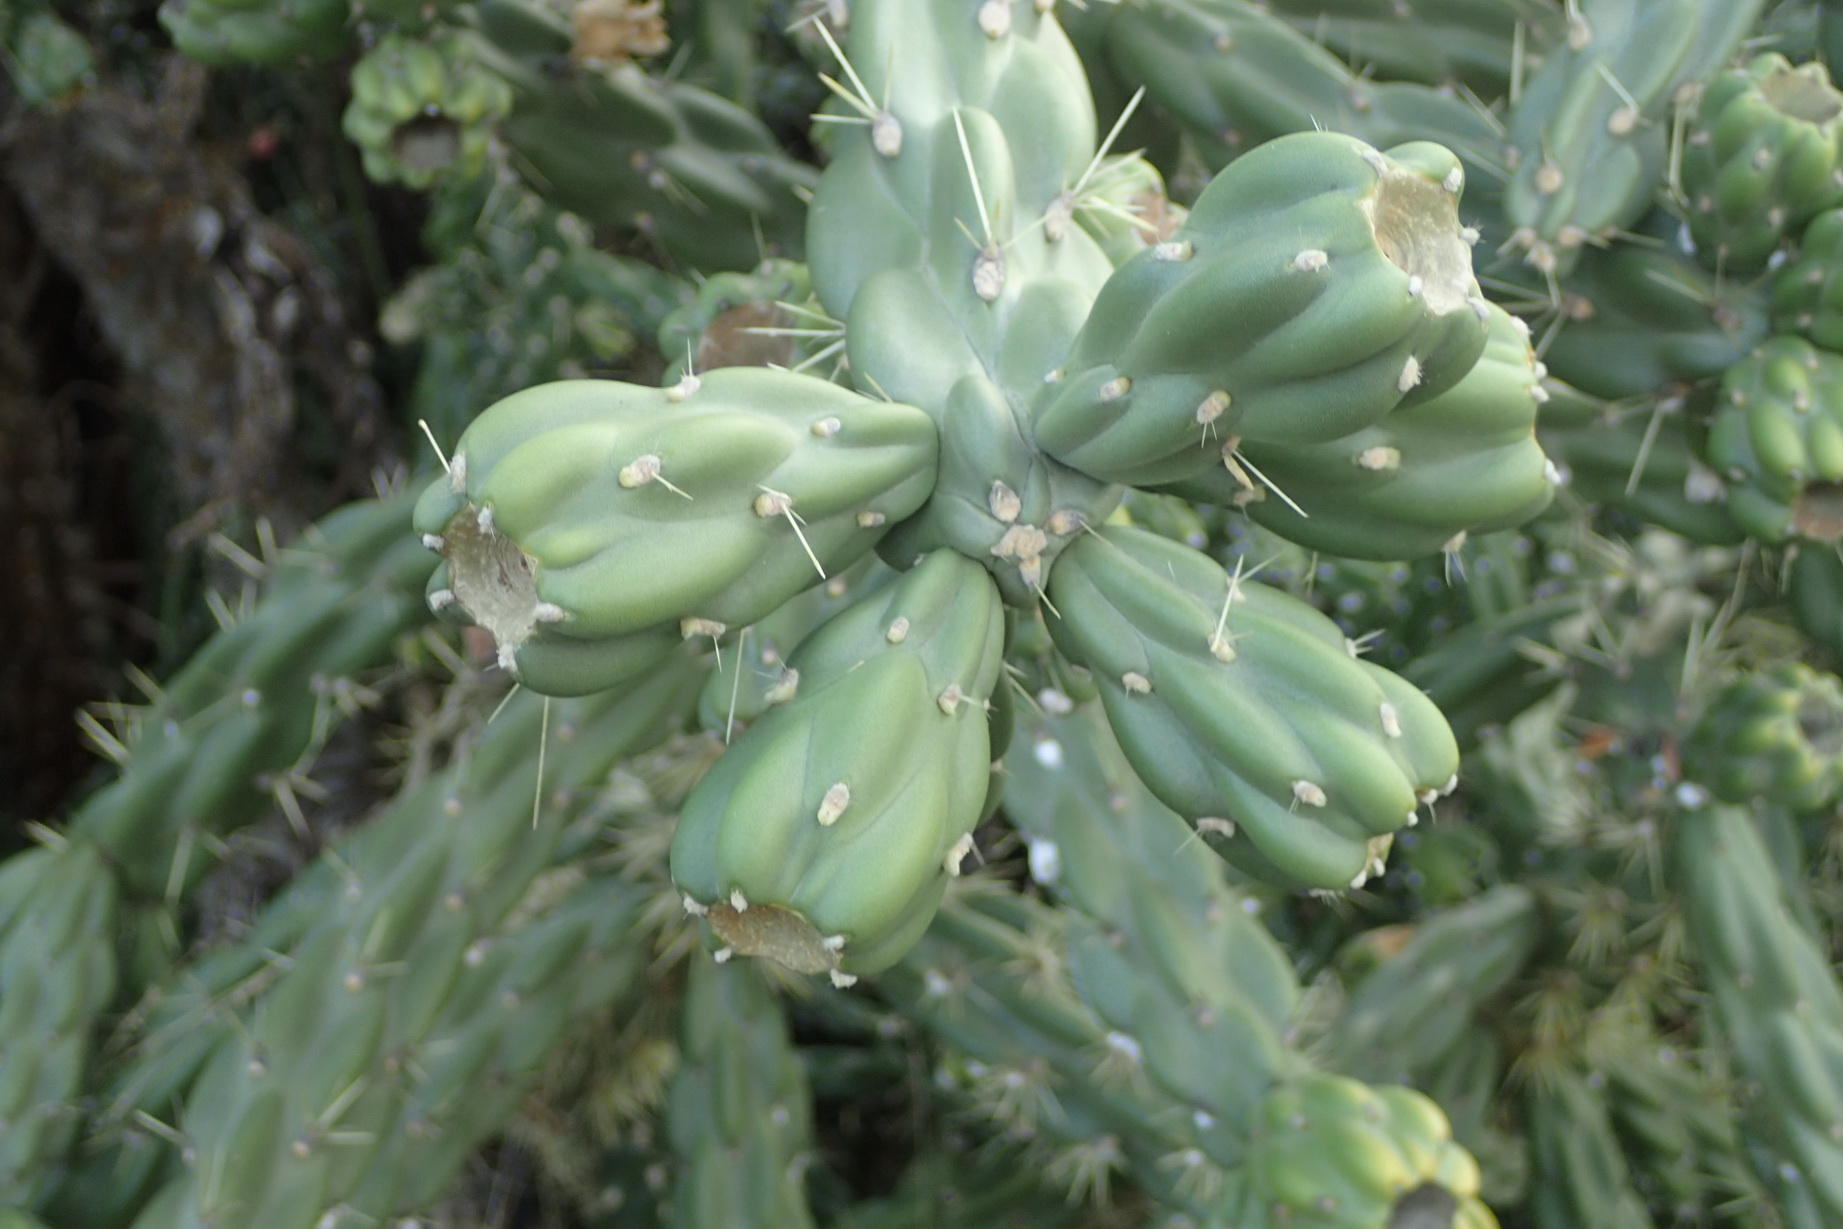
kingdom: Plantae
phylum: Tracheophyta
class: Magnoliopsida
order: Caryophyllales
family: Cactaceae
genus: Cylindropuntia
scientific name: Cylindropuntia imbricata
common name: Candelabrum cactus
